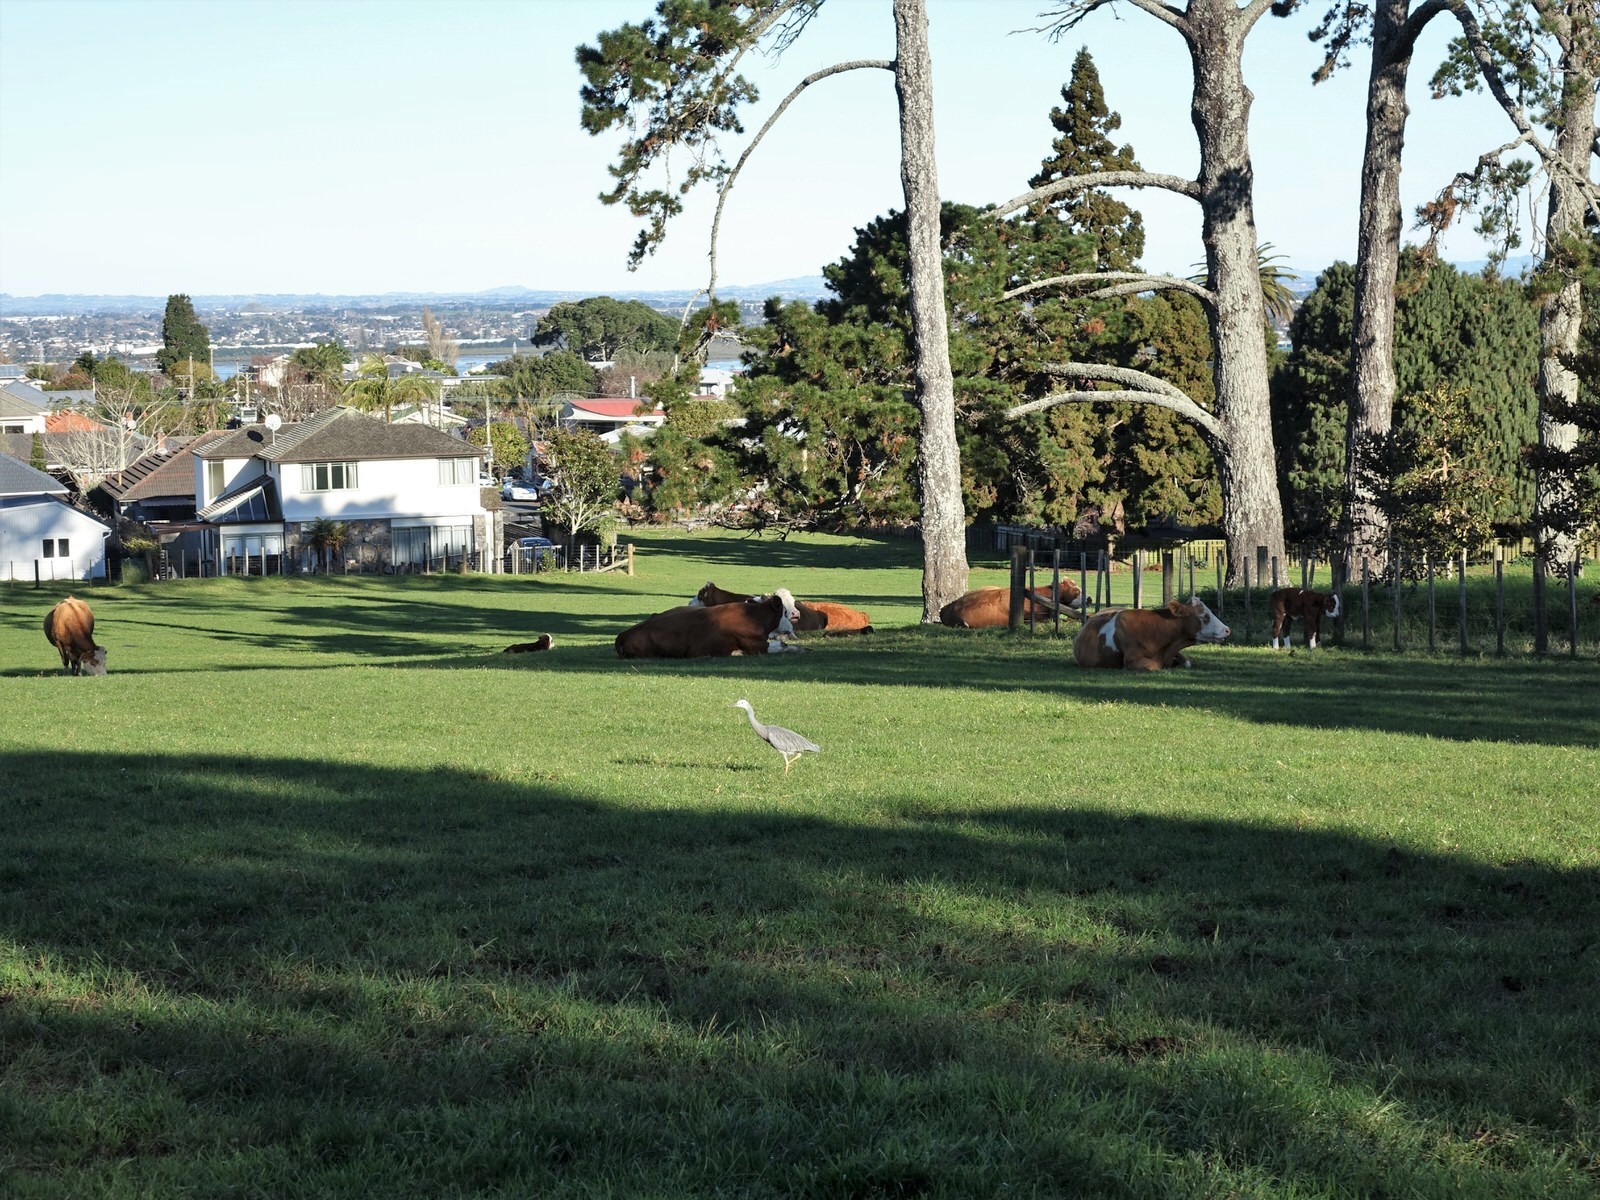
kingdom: Animalia
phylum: Chordata
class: Aves
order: Pelecaniformes
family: Ardeidae
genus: Egretta
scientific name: Egretta novaehollandiae
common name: White-faced heron
